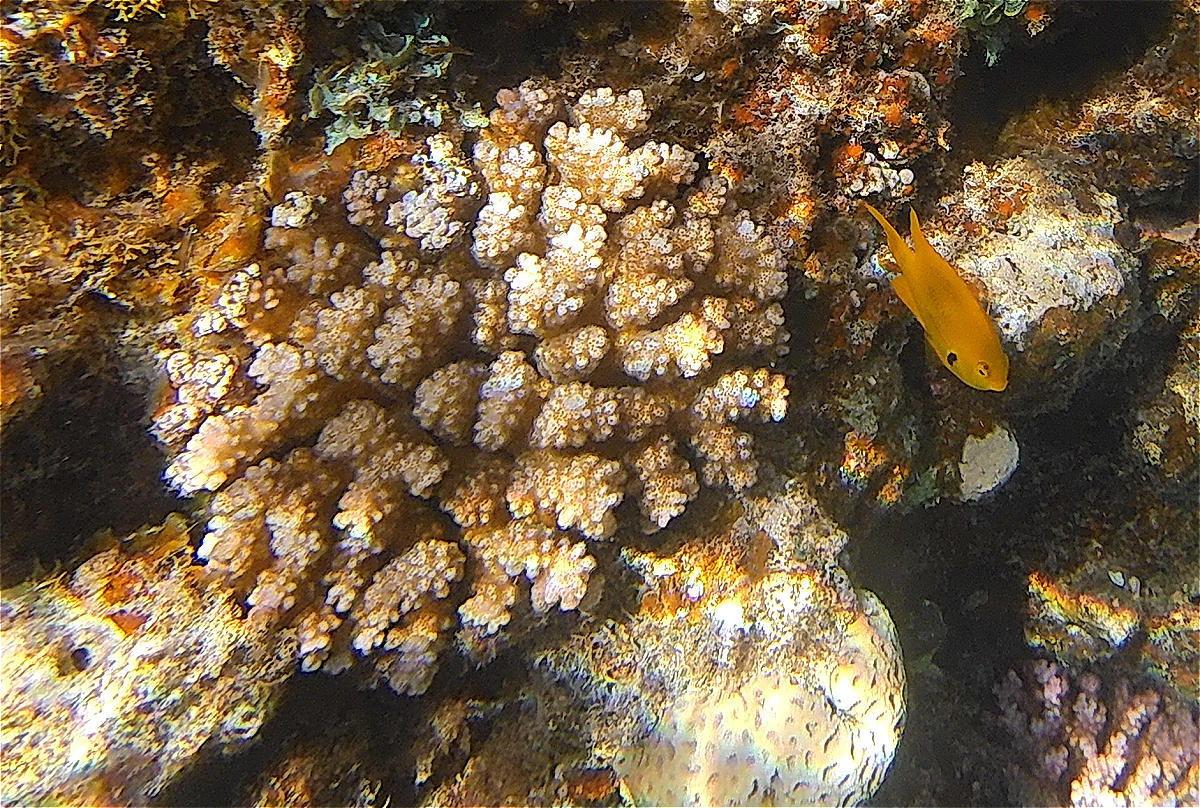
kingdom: Animalia
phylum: Cnidaria
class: Anthozoa
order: Scleractinia
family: Pocilloporidae
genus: Pocillopora
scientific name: Pocillopora verrucosa
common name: Cauliflower coral
